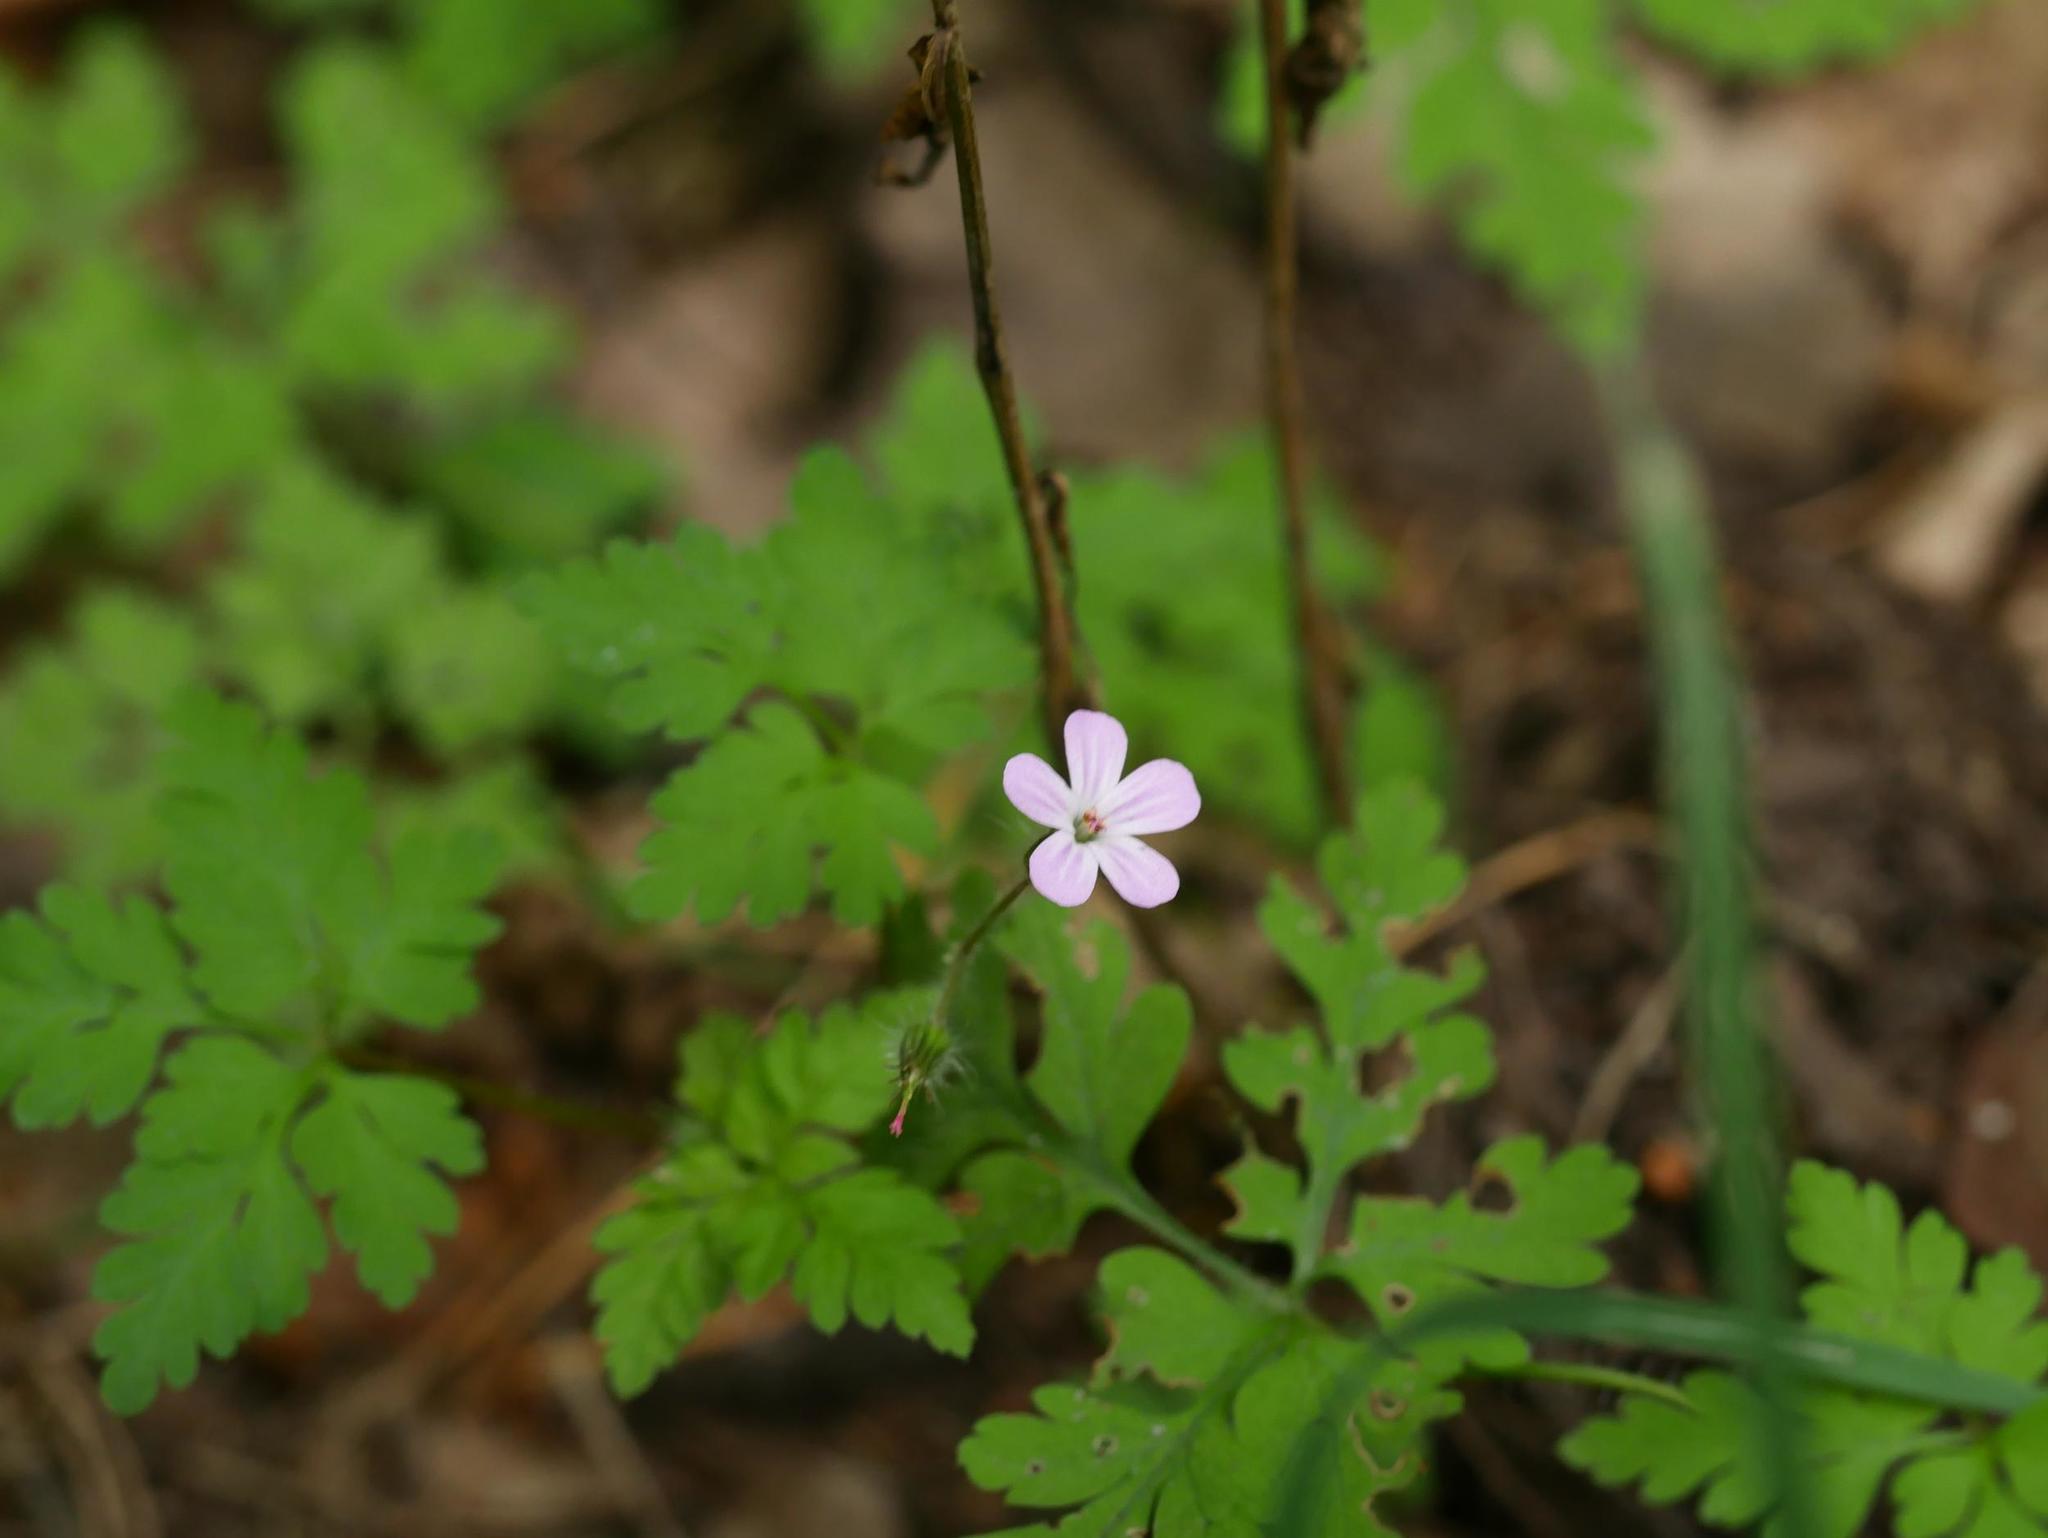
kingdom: Plantae
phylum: Tracheophyta
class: Magnoliopsida
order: Geraniales
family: Geraniaceae
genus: Geranium
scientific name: Geranium robertianum
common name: Herb-robert
